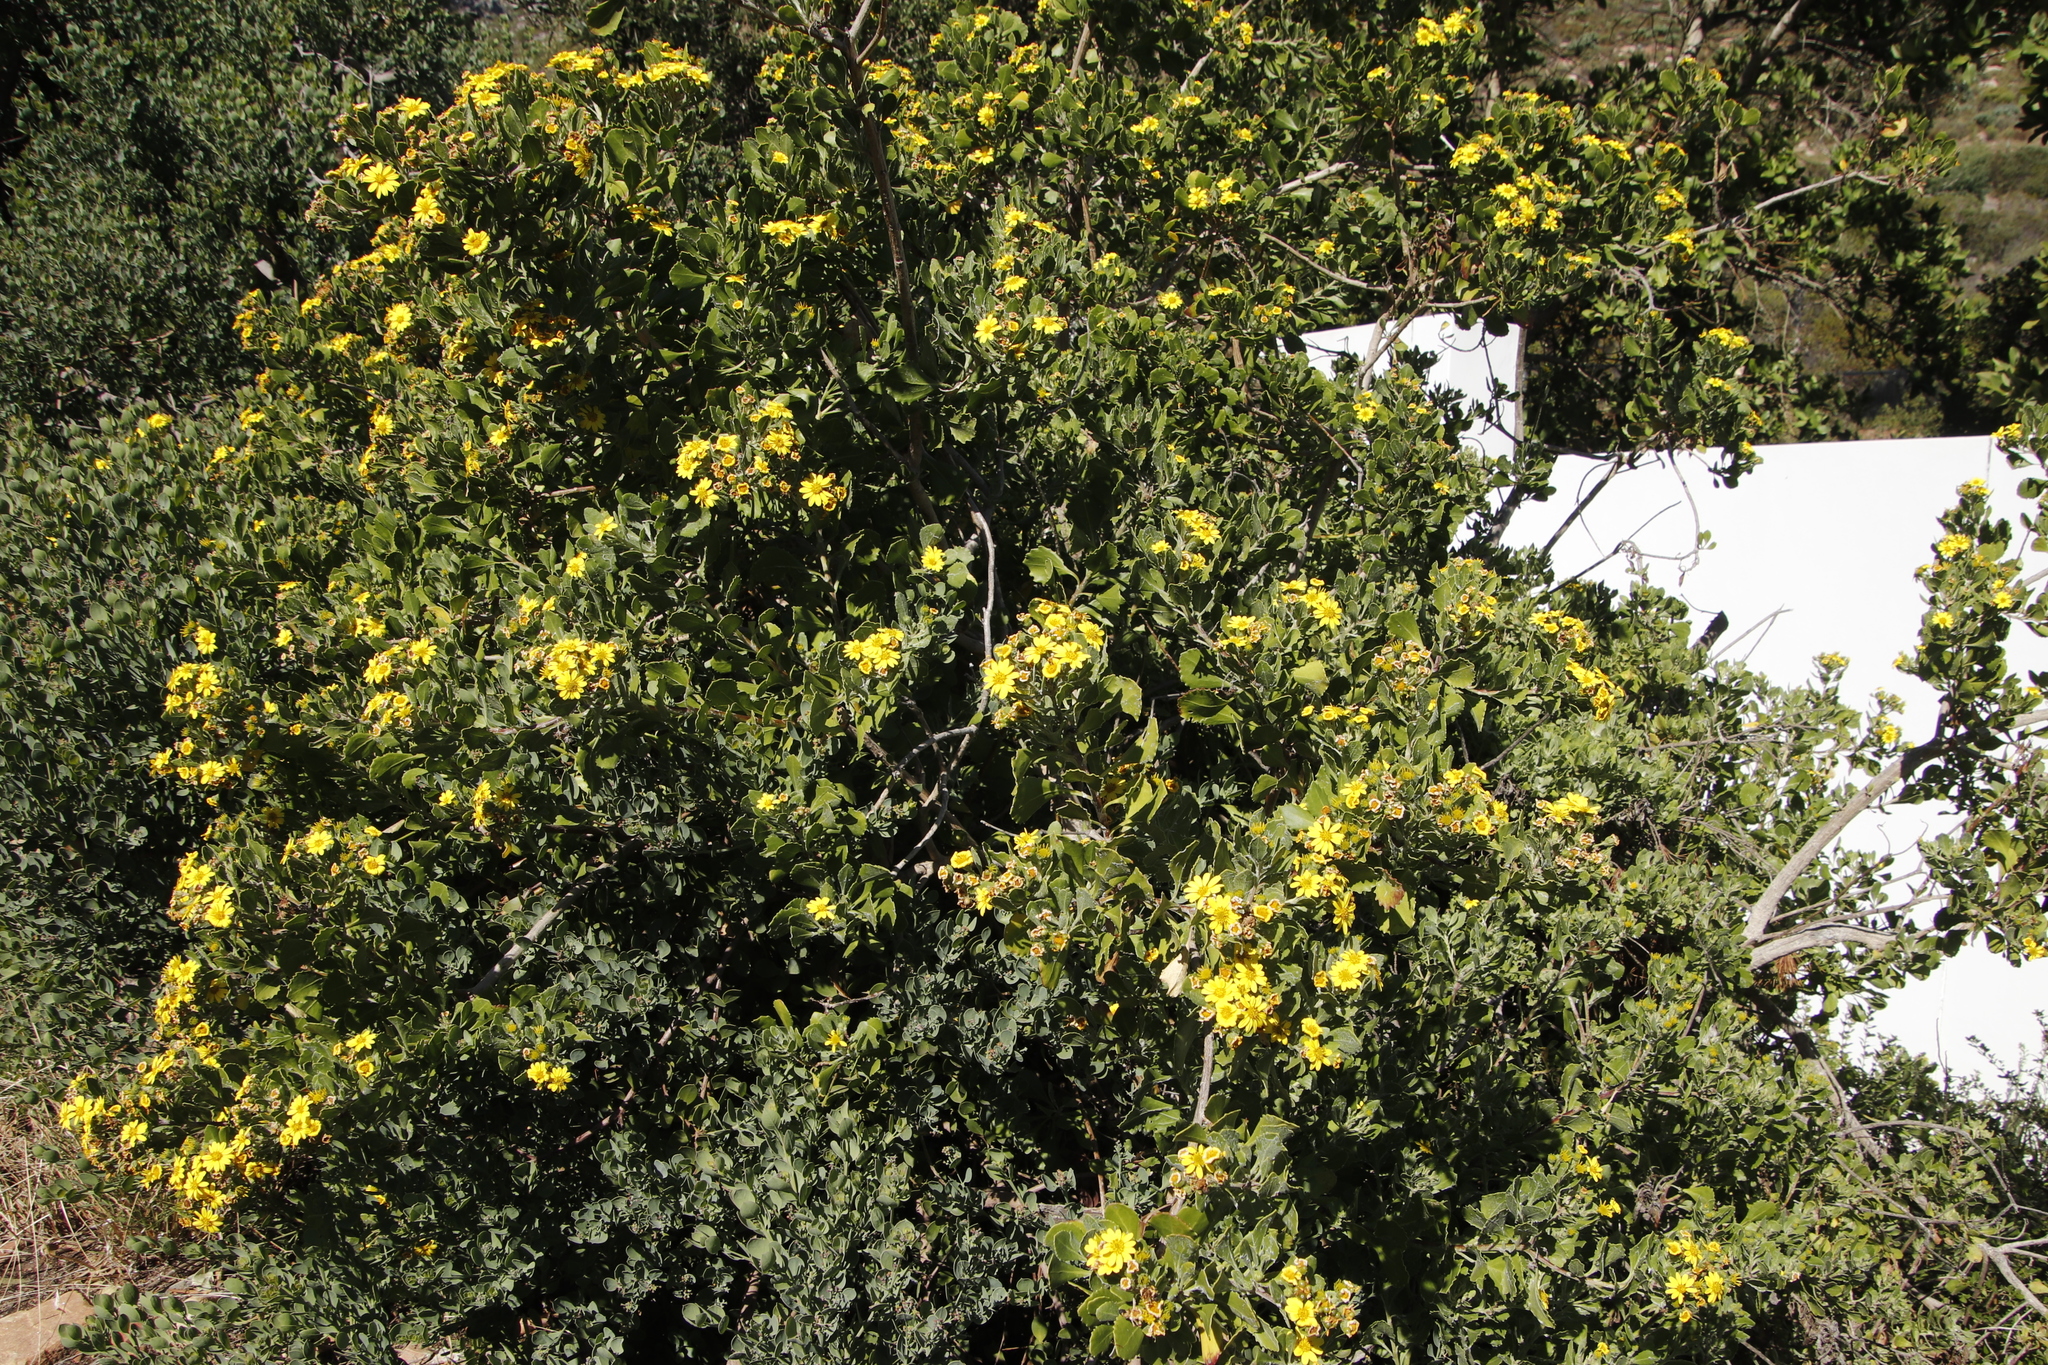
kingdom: Plantae
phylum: Tracheophyta
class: Magnoliopsida
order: Asterales
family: Asteraceae
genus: Osteospermum
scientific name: Osteospermum moniliferum
